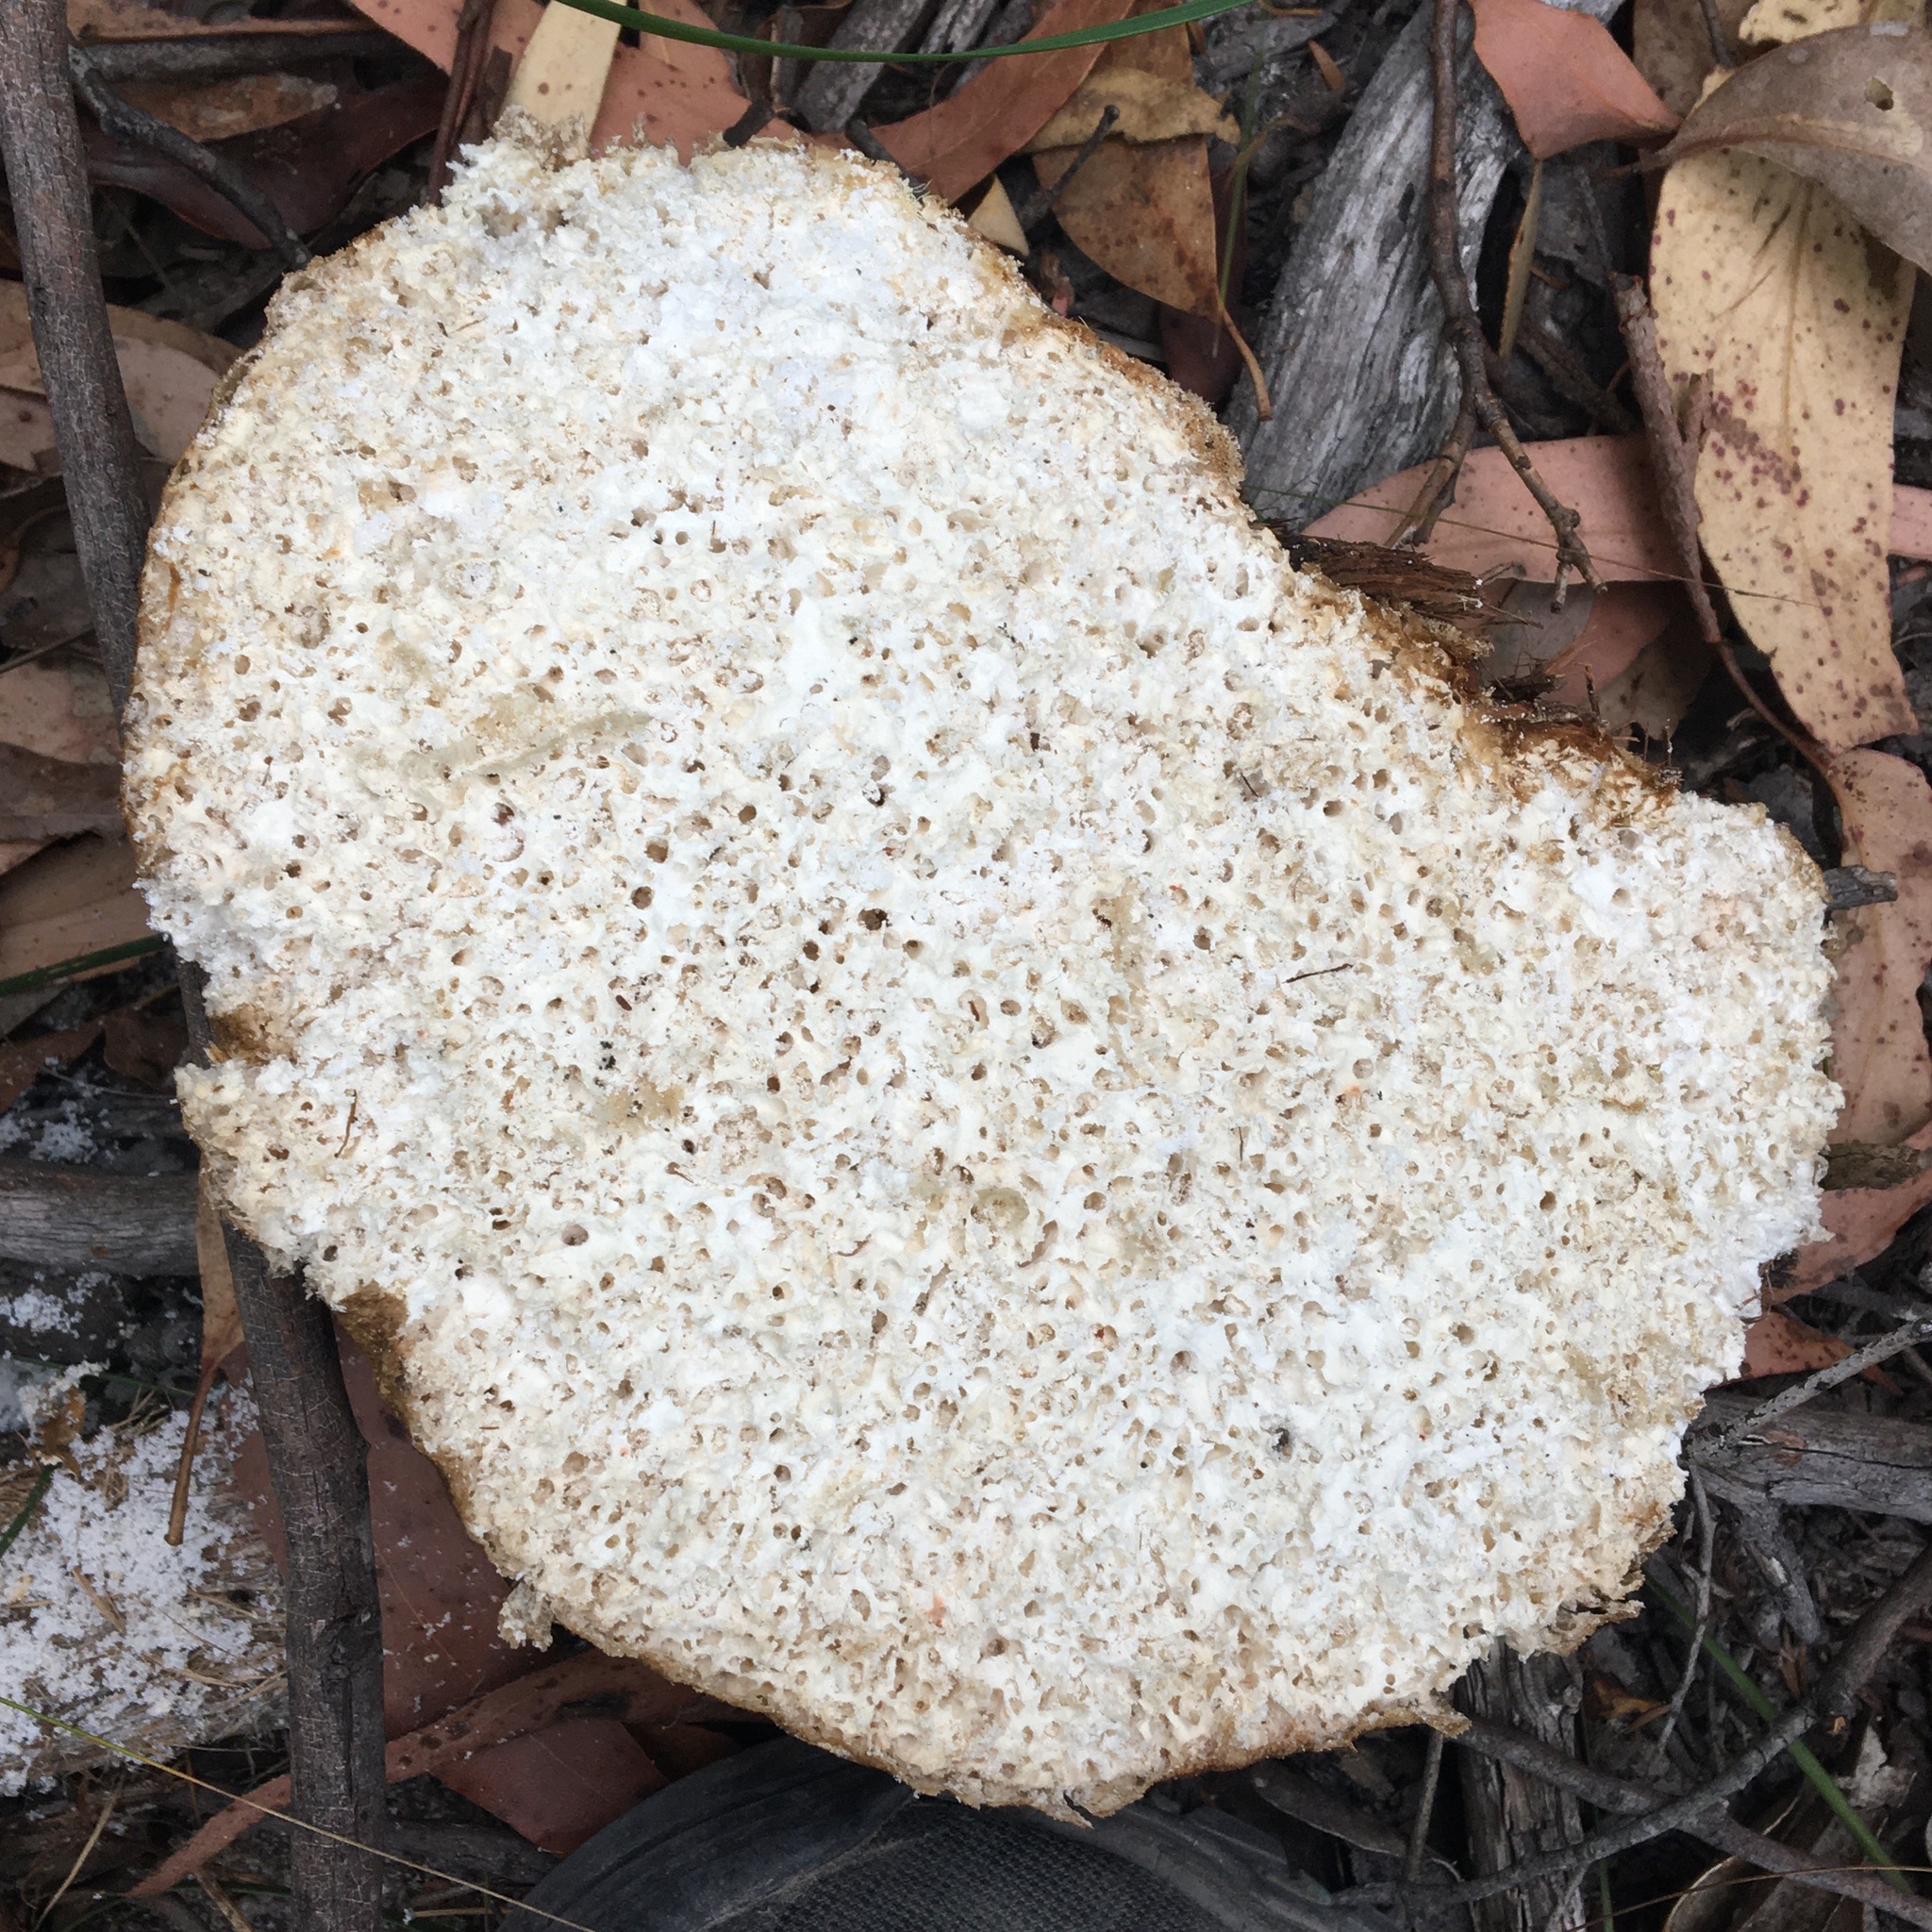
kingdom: Fungi
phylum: Basidiomycota
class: Agaricomycetes
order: Polyporales
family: Laetiporaceae
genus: Laetiporus
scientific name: Laetiporus portentosus
